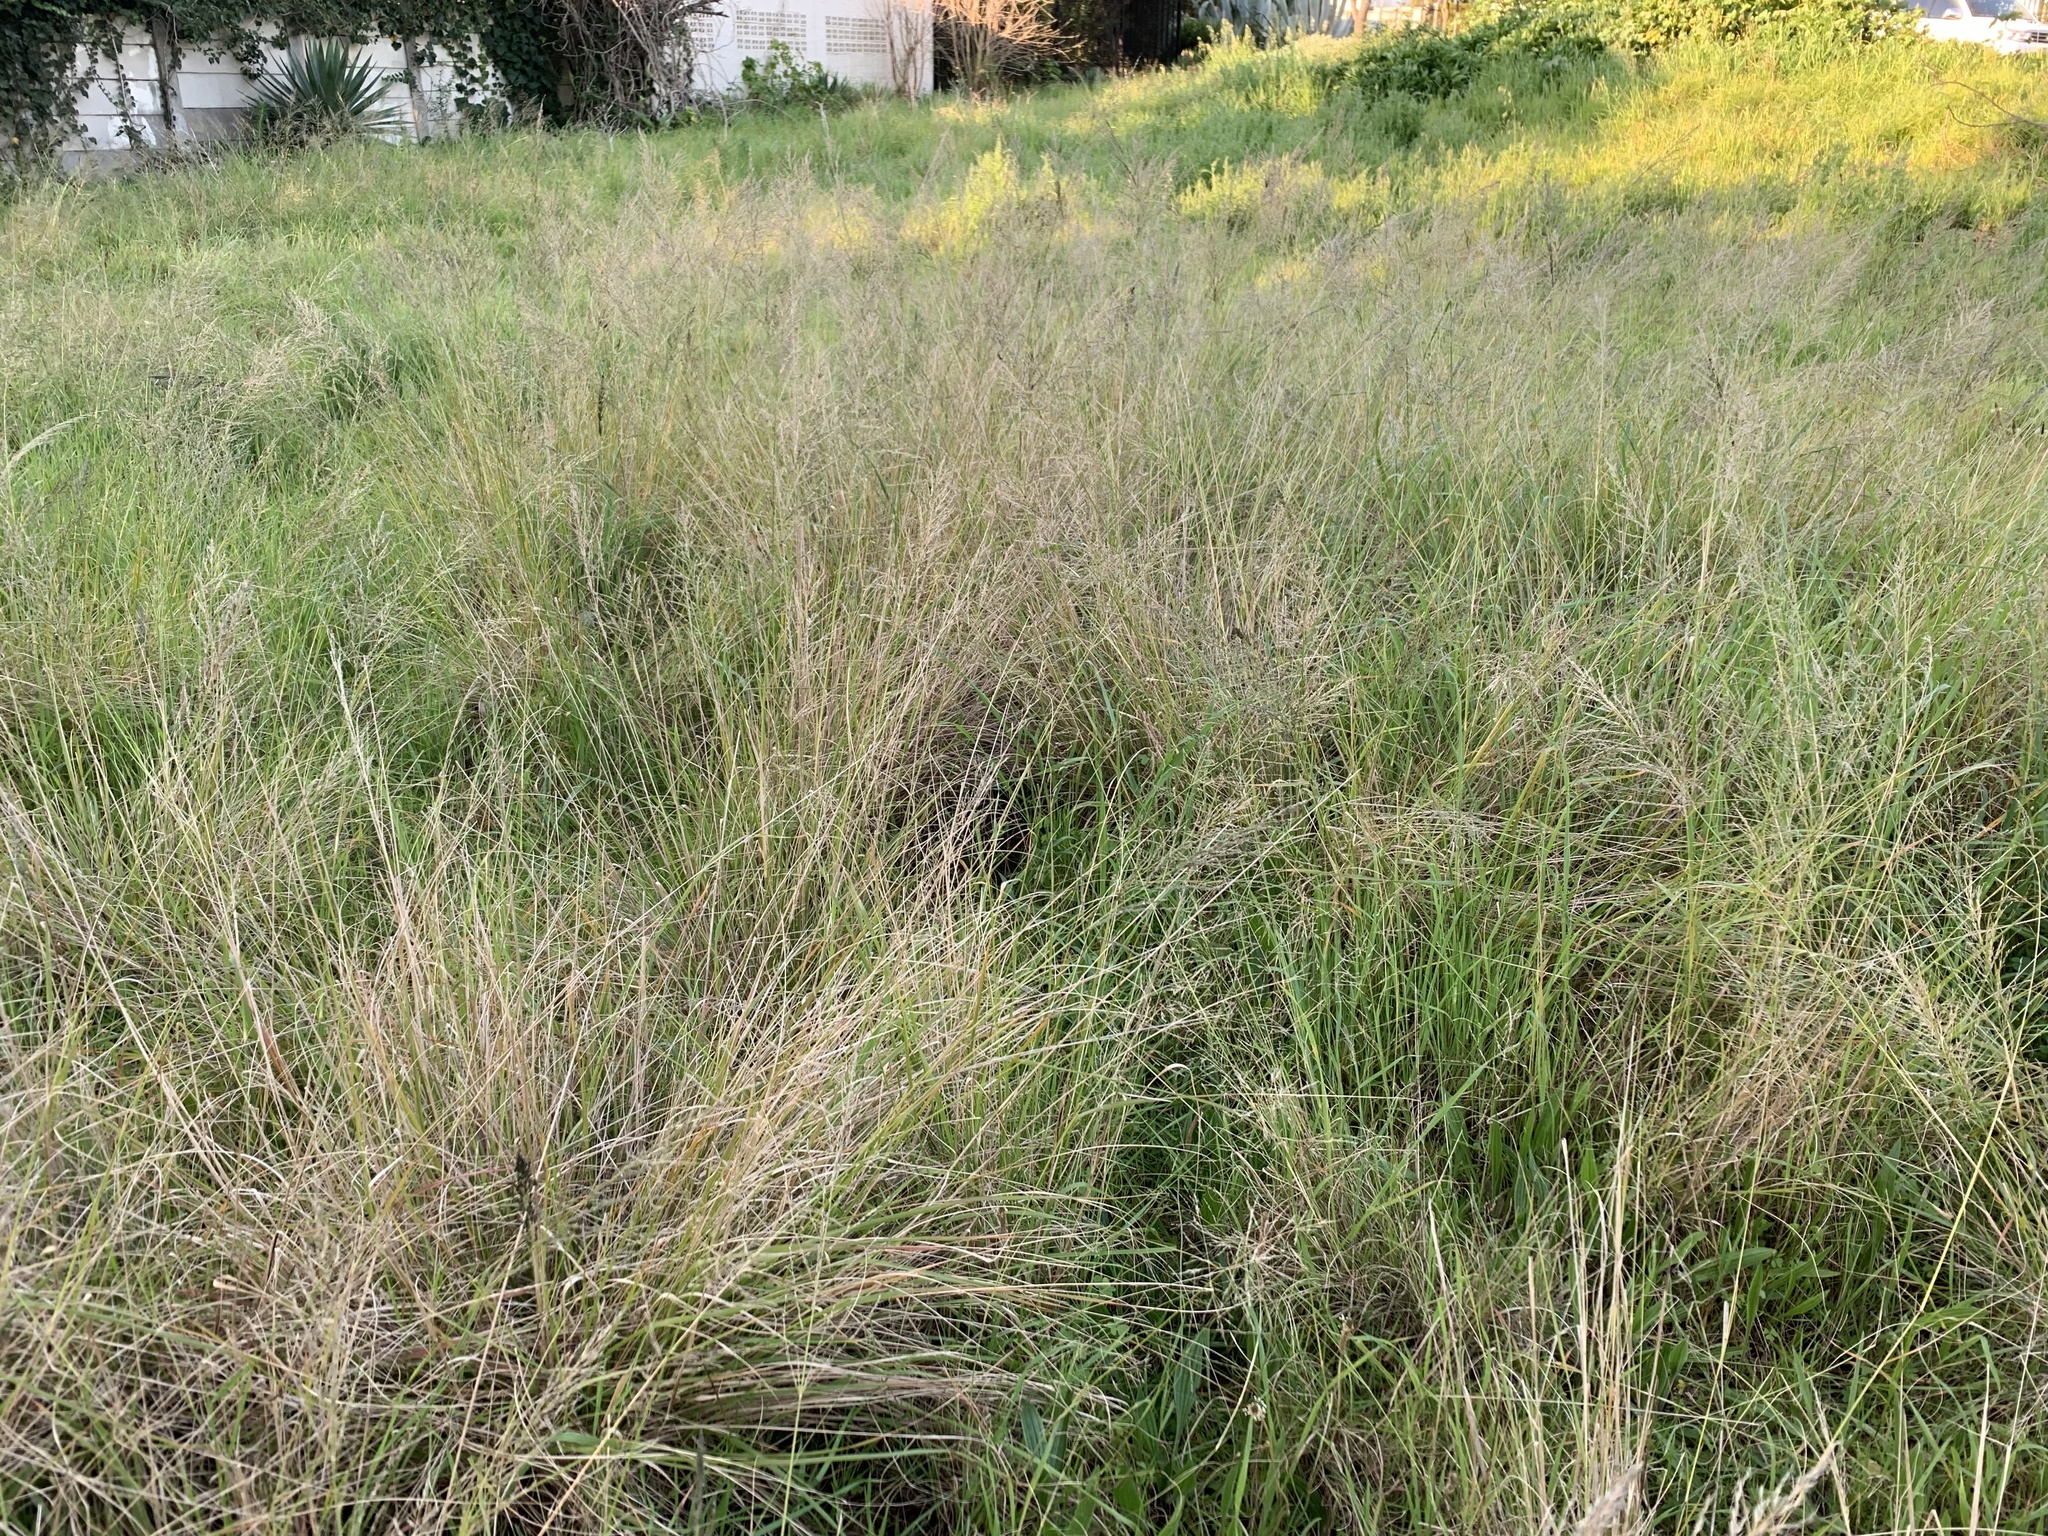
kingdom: Plantae
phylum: Tracheophyta
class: Liliopsida
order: Poales
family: Poaceae
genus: Eragrostis
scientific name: Eragrostis curvula
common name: African love-grass
